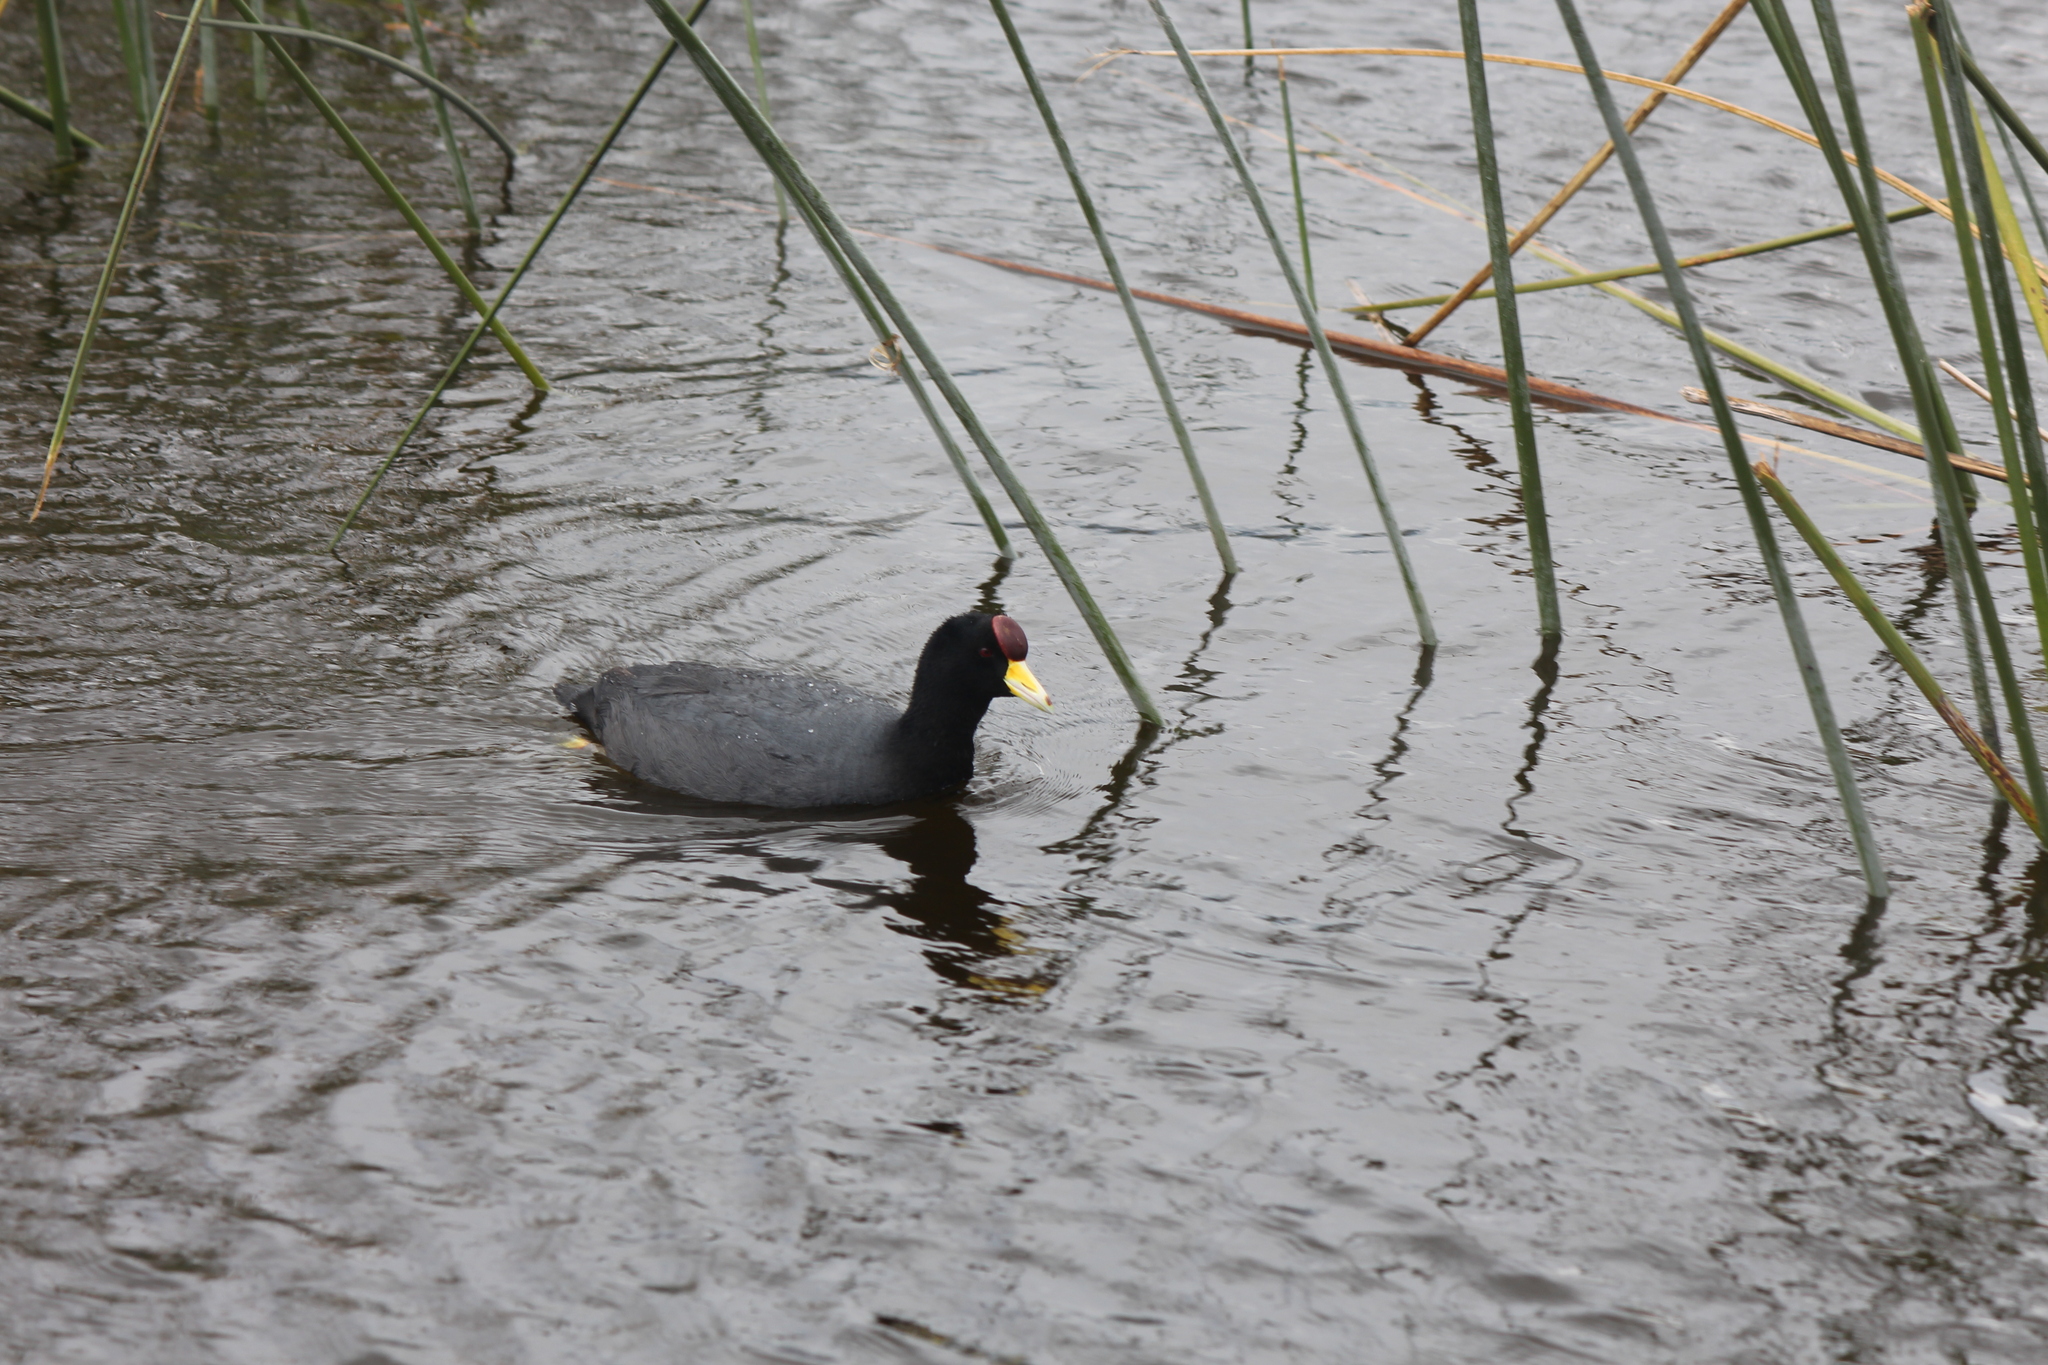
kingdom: Animalia
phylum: Chordata
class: Aves
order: Gruiformes
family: Rallidae
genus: Fulica
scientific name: Fulica ardesiaca
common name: Andean coot
